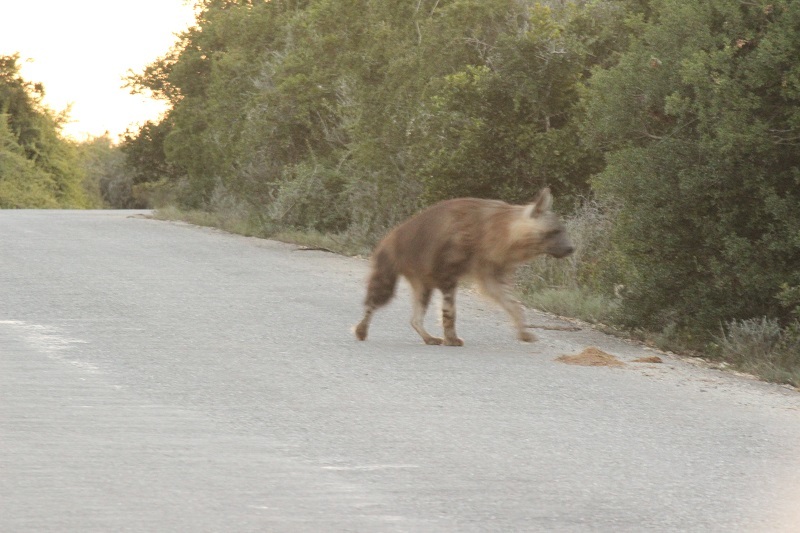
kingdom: Animalia
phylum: Chordata
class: Mammalia
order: Carnivora
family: Hyaenidae
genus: Hyaena
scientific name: Hyaena brunnea
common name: Brown hyena
